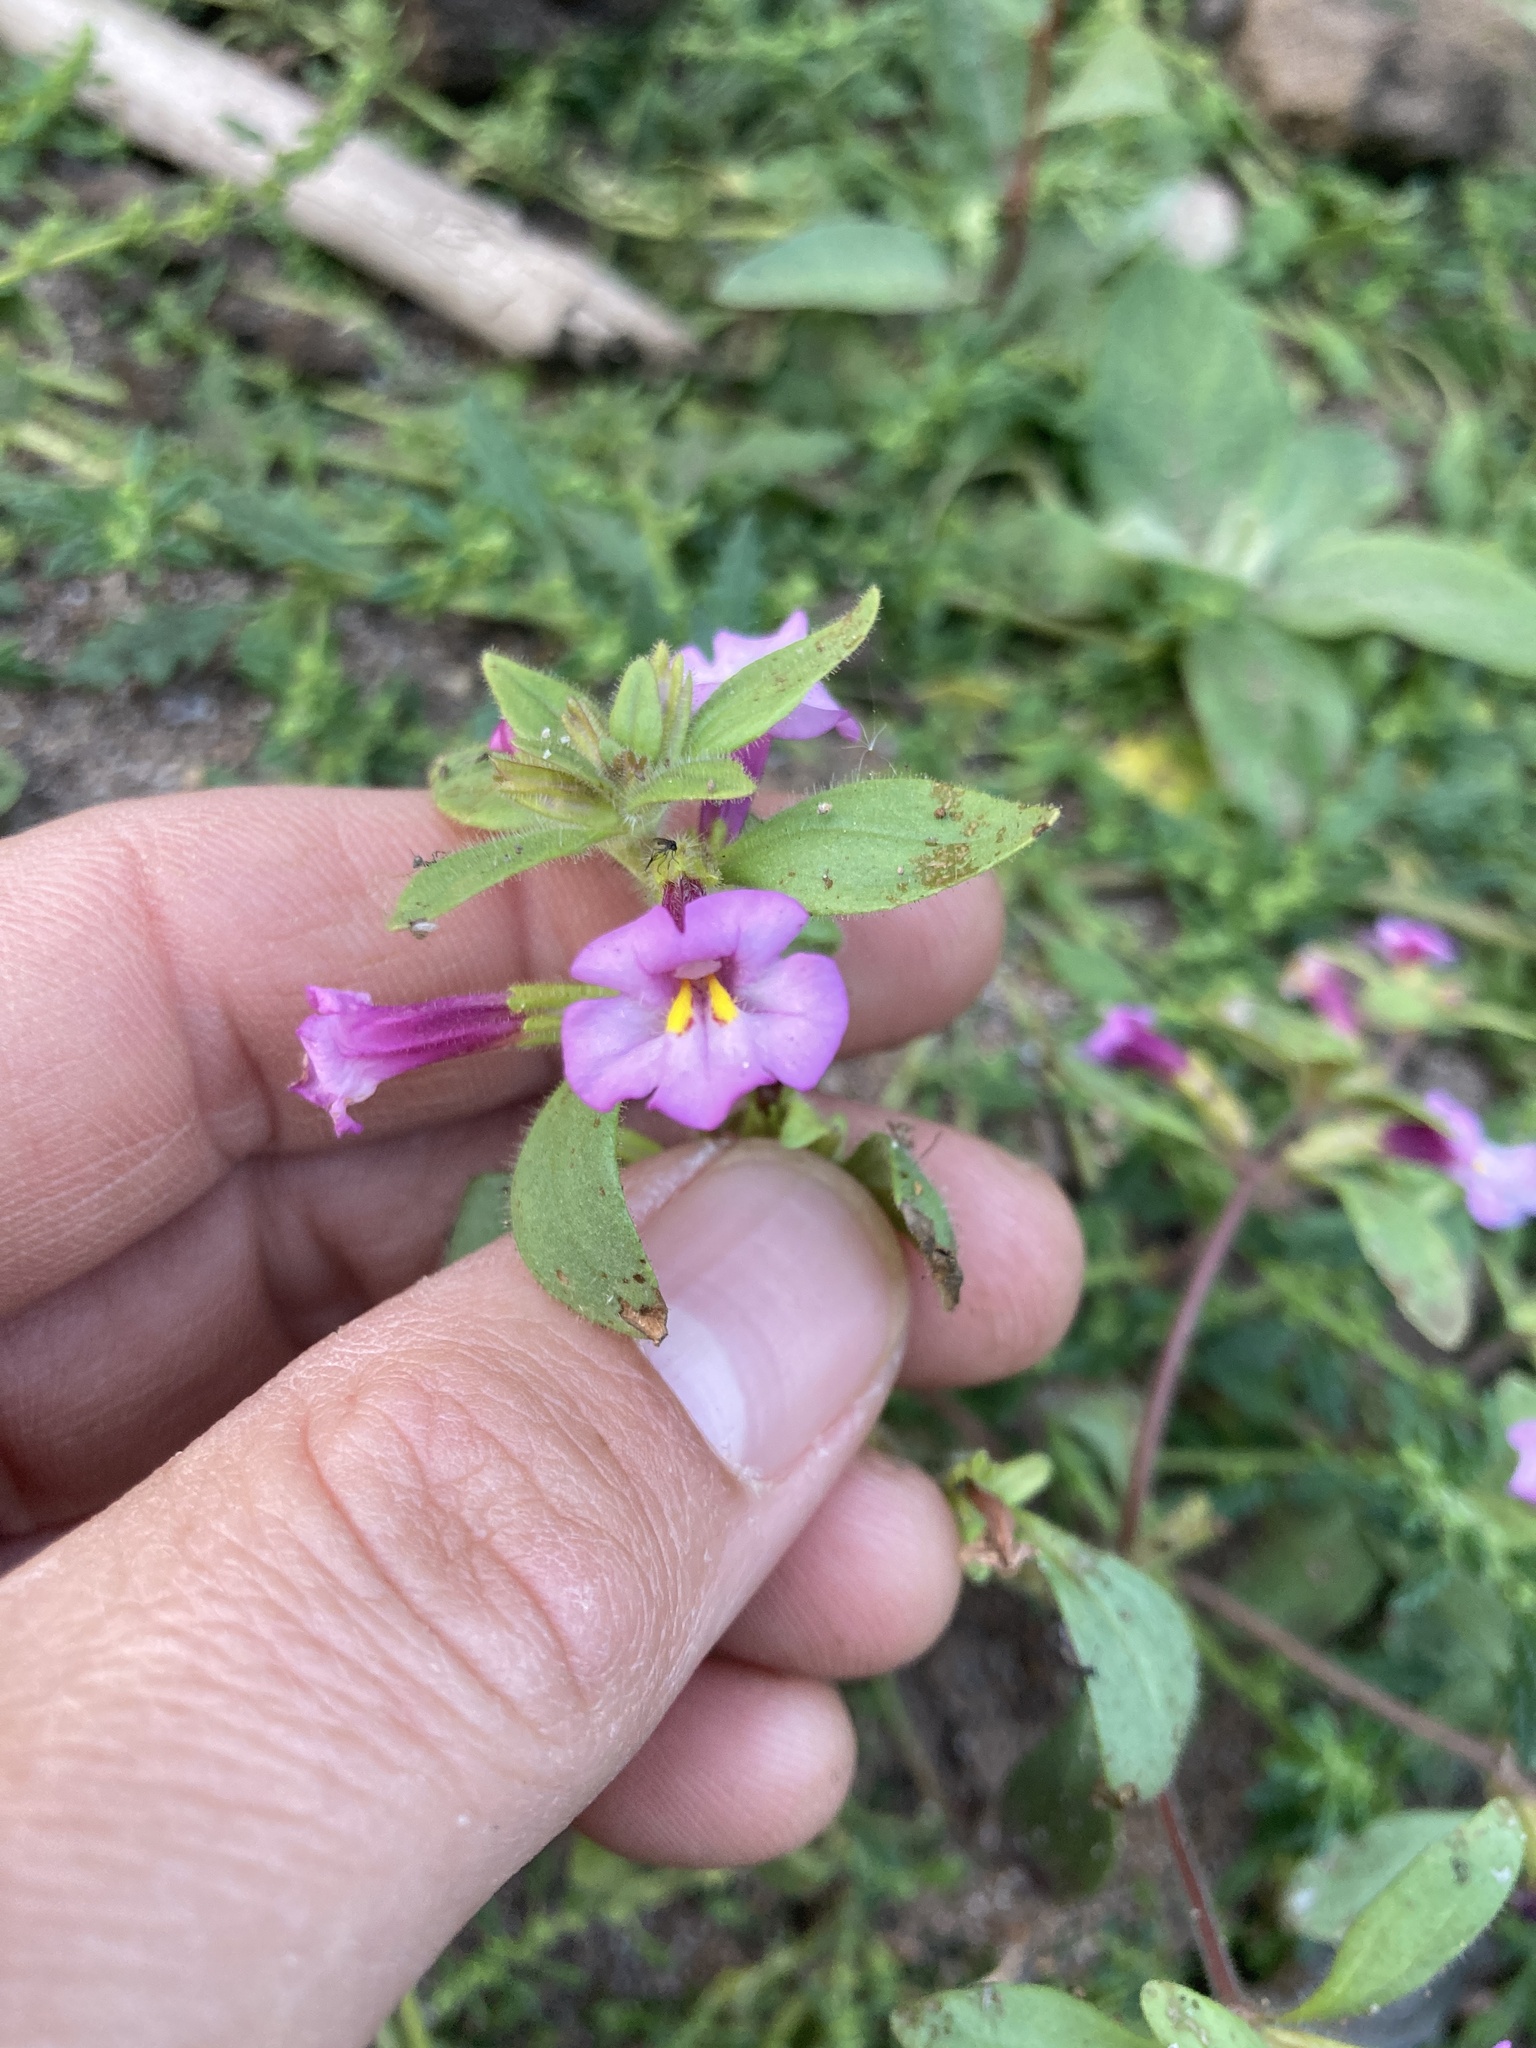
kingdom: Plantae
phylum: Tracheophyta
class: Magnoliopsida
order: Lamiales
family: Phrymaceae
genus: Diplacus
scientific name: Diplacus torreyi
